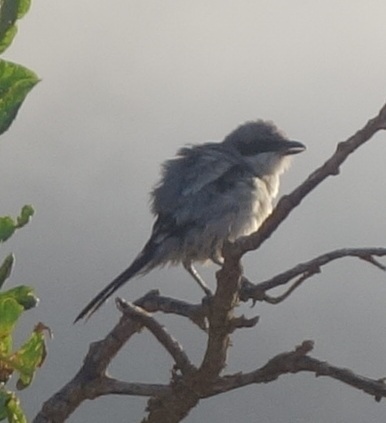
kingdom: Animalia
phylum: Chordata
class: Aves
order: Passeriformes
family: Laniidae
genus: Lanius
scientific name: Lanius excubitor
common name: Great grey shrike
